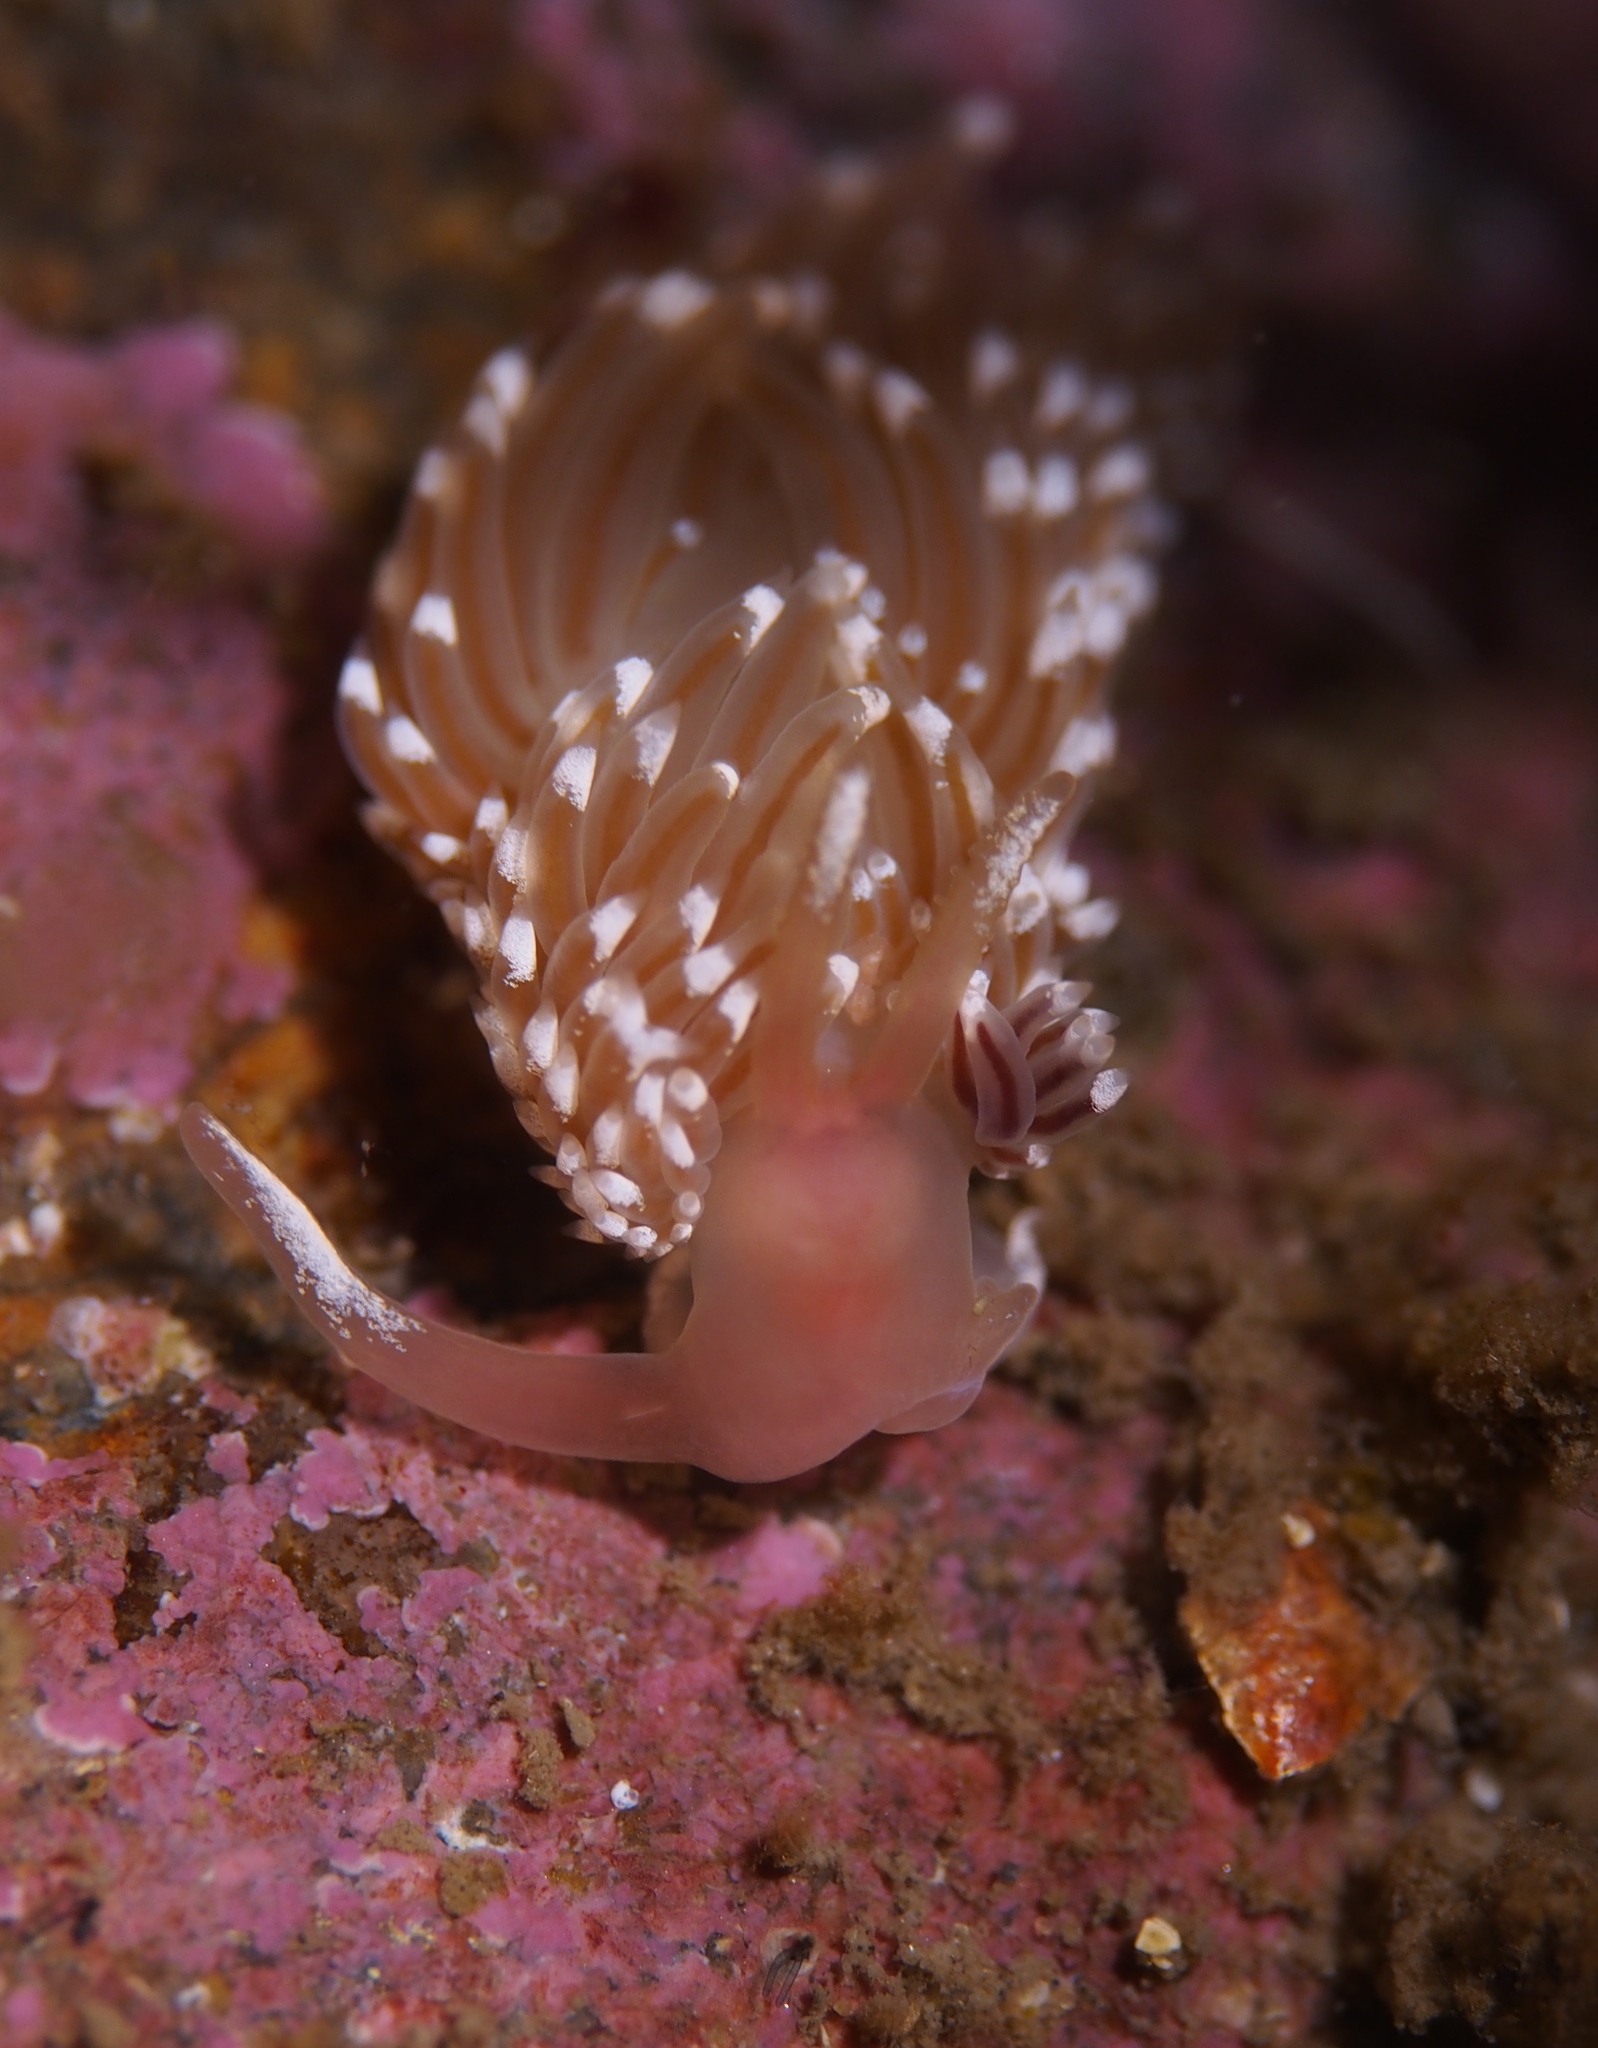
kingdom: Animalia
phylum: Mollusca
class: Gastropoda
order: Nudibranchia
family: Facelinidae
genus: Facelina
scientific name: Facelina bostoniensis
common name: Boston facelina
